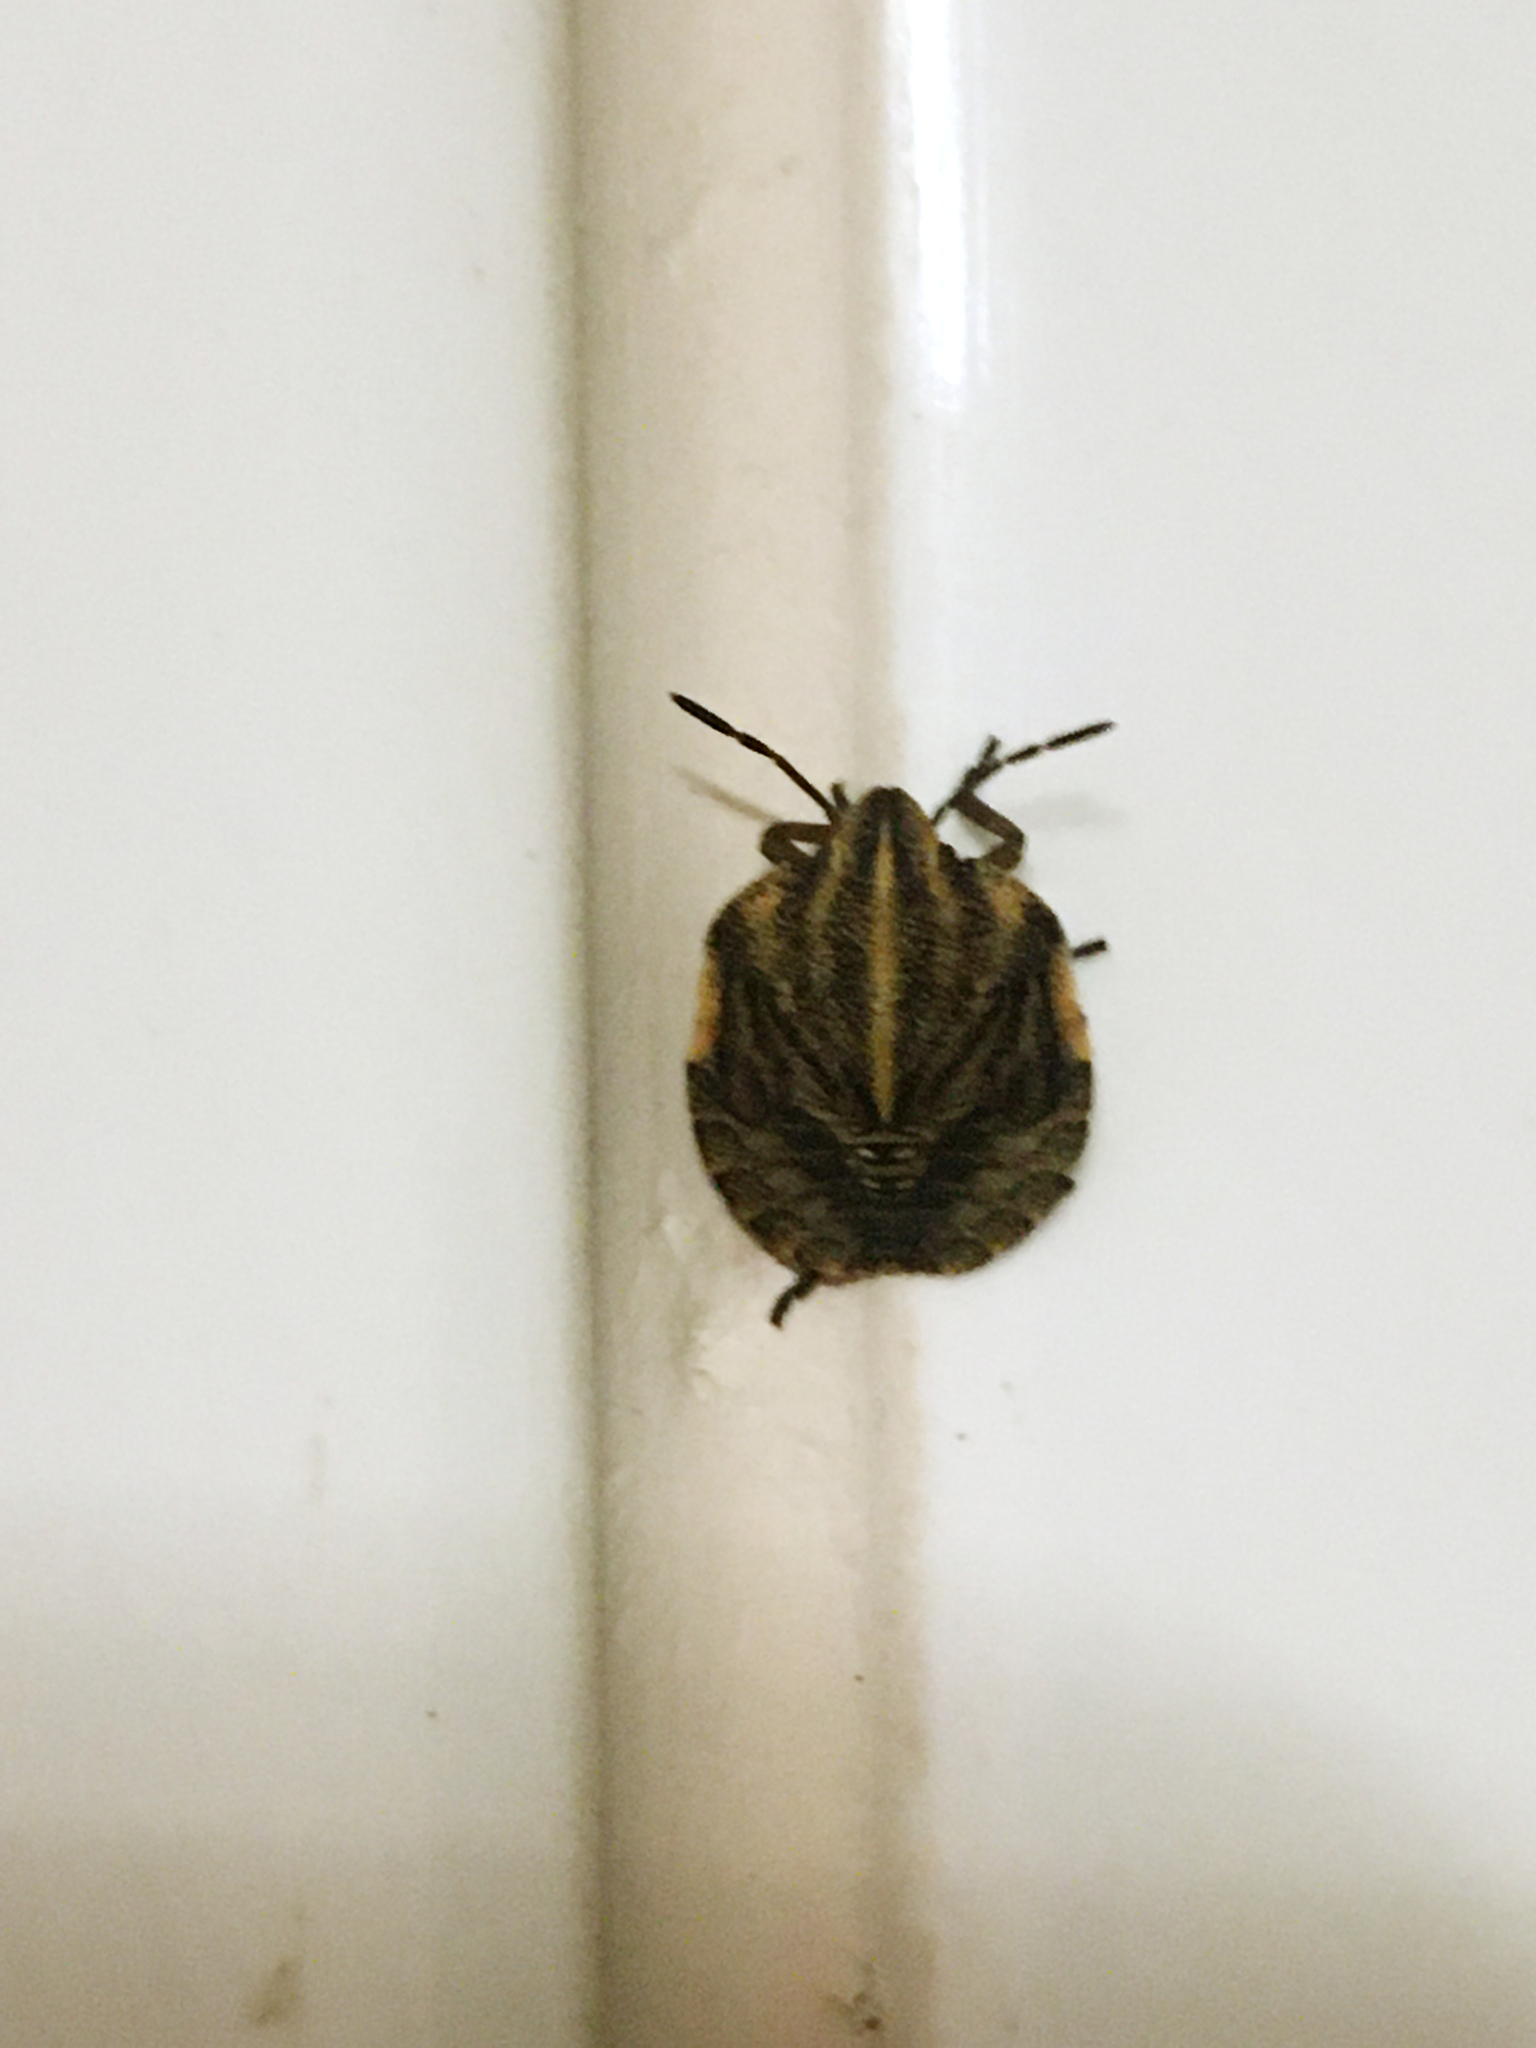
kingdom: Animalia
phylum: Arthropoda
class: Insecta
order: Hemiptera
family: Pentatomidae
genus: Graphosoma
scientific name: Graphosoma italicum
